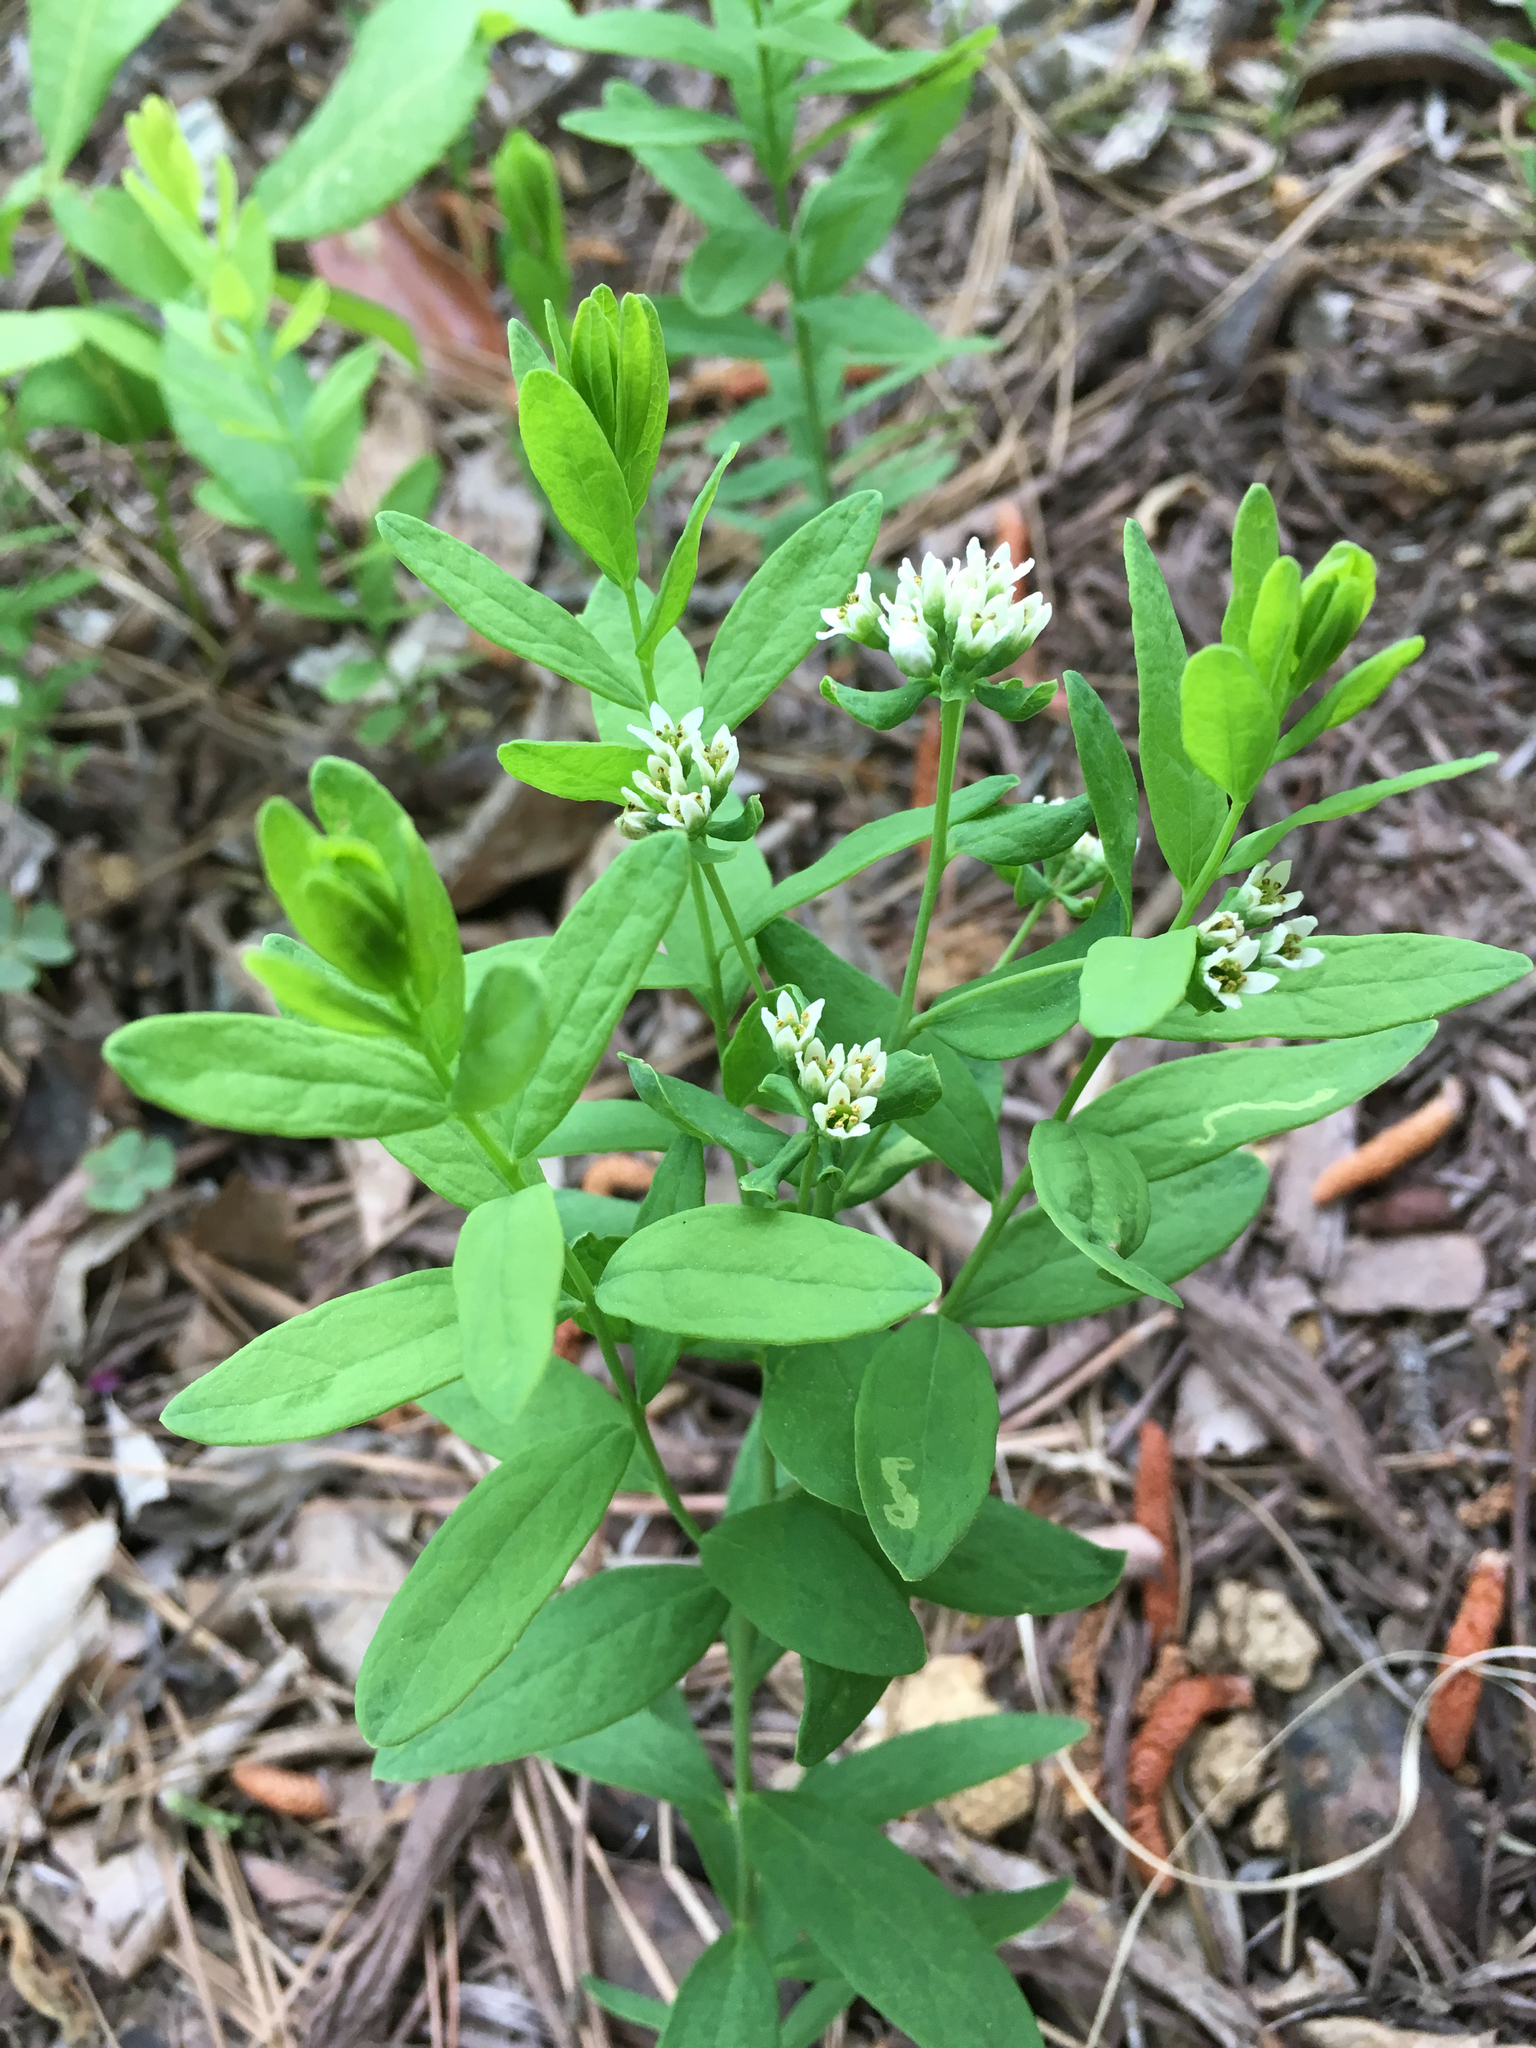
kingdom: Plantae
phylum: Tracheophyta
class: Magnoliopsida
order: Santalales
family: Comandraceae
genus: Comandra
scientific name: Comandra umbellata
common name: Bastard toadflax
